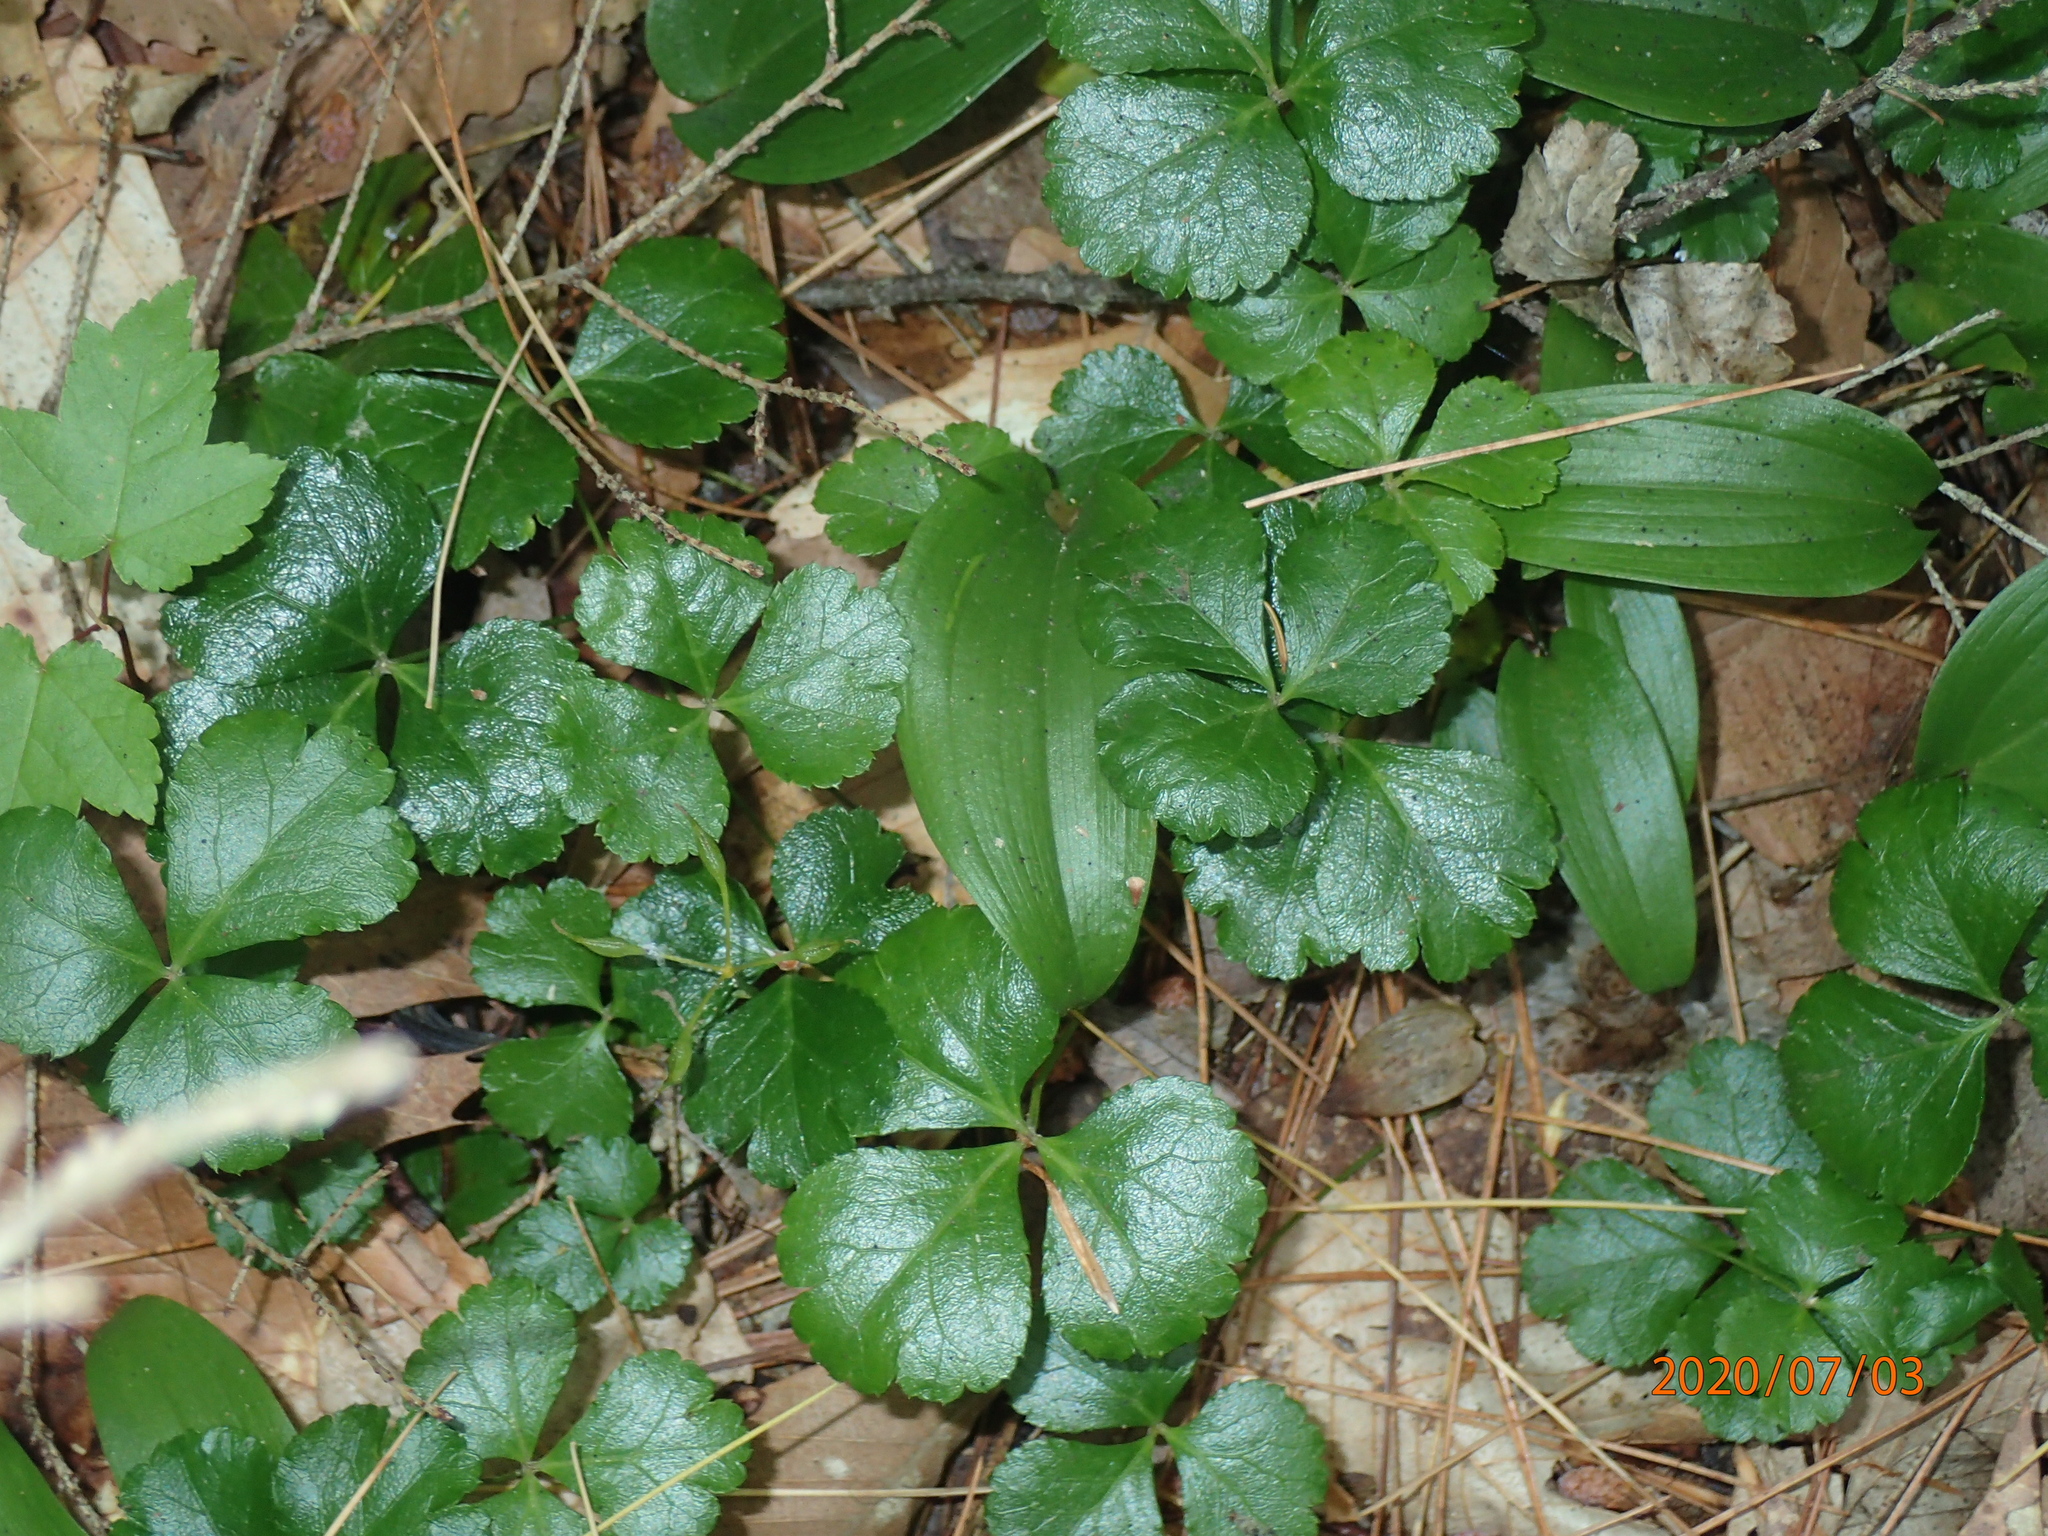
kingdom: Plantae
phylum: Tracheophyta
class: Magnoliopsida
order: Ranunculales
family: Ranunculaceae
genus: Coptis
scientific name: Coptis trifolia
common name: Canker-root
